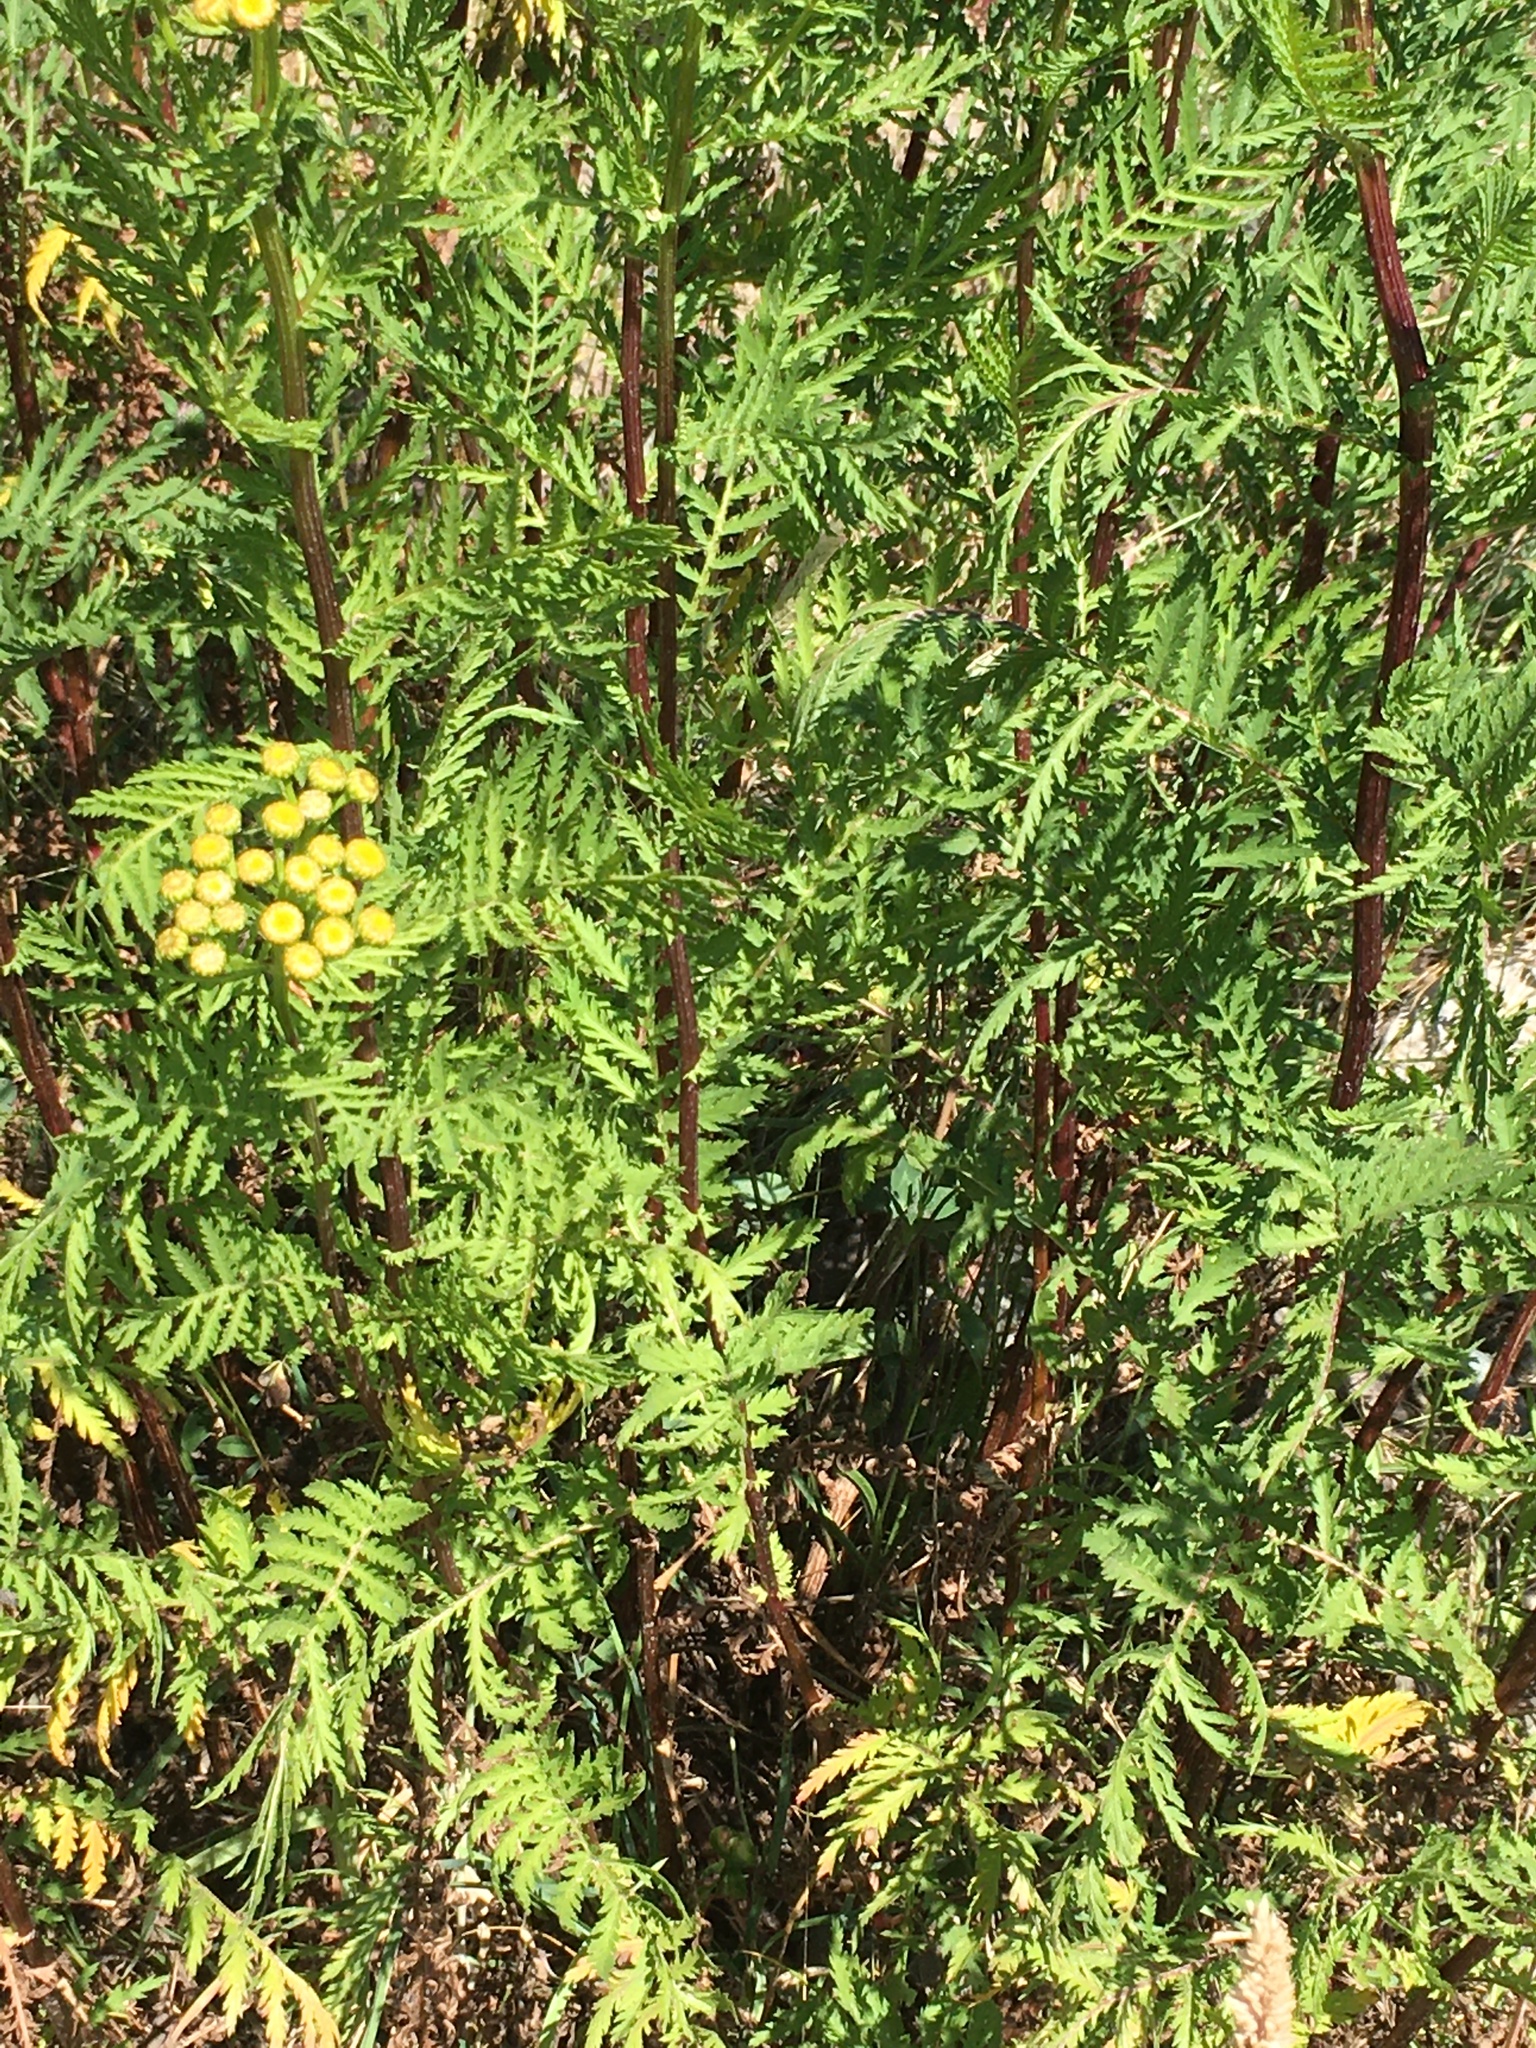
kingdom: Plantae
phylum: Tracheophyta
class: Magnoliopsida
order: Asterales
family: Asteraceae
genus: Tanacetum
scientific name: Tanacetum vulgare
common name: Common tansy
